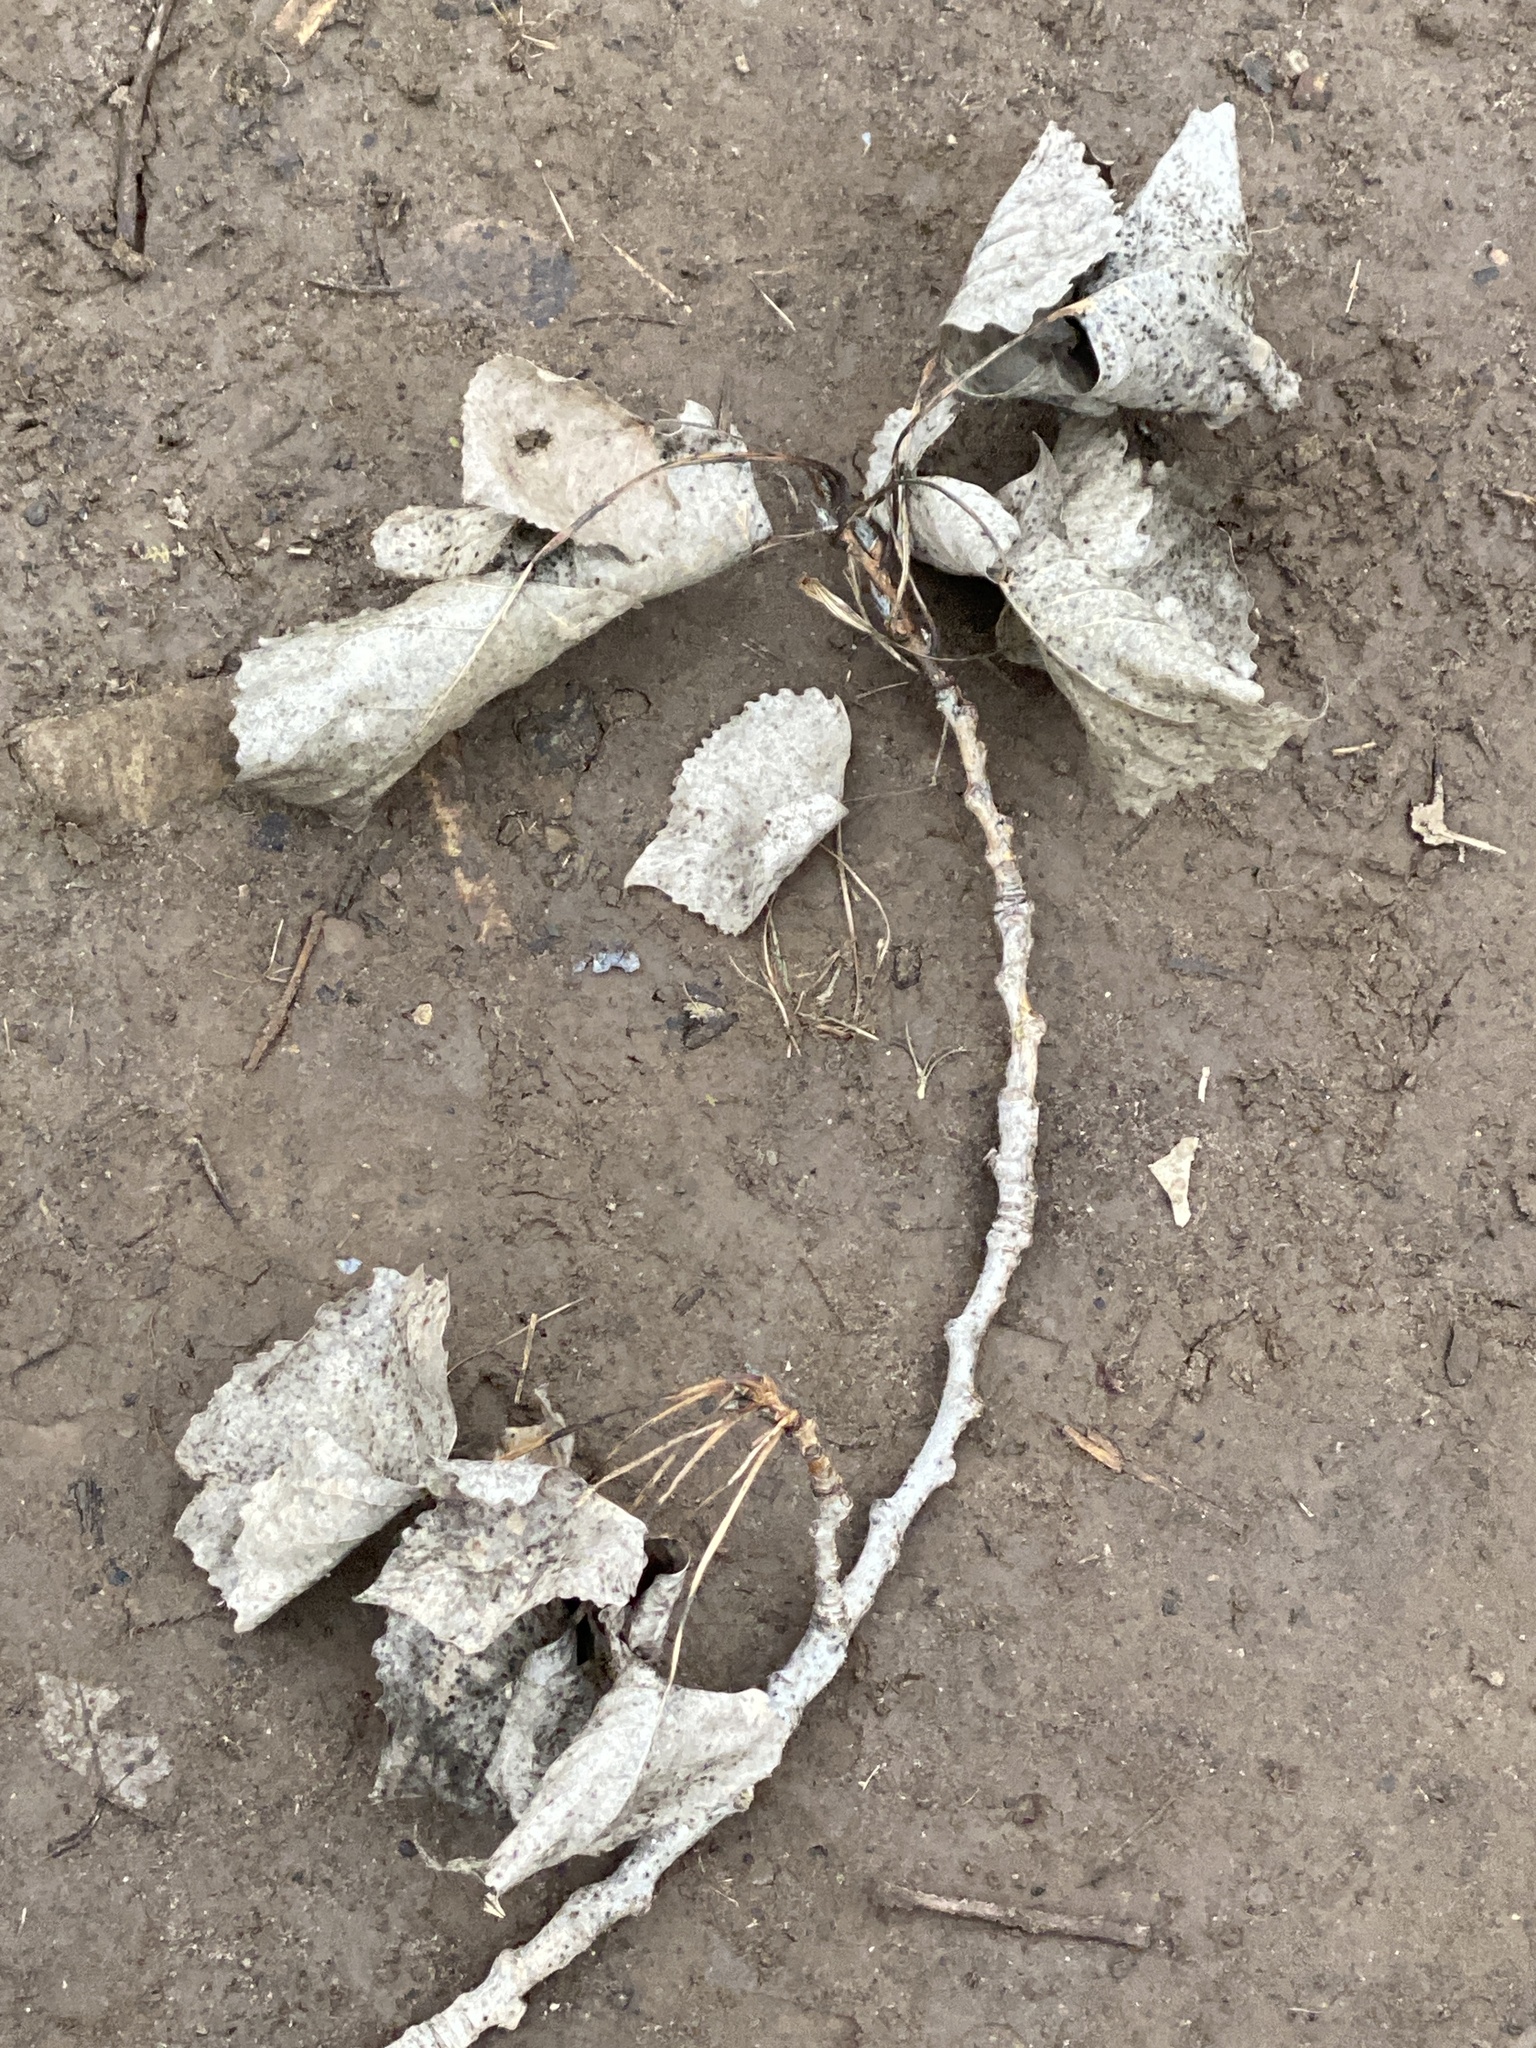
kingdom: Plantae
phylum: Tracheophyta
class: Magnoliopsida
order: Malpighiales
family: Salicaceae
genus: Populus
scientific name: Populus deltoides
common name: Eastern cottonwood
